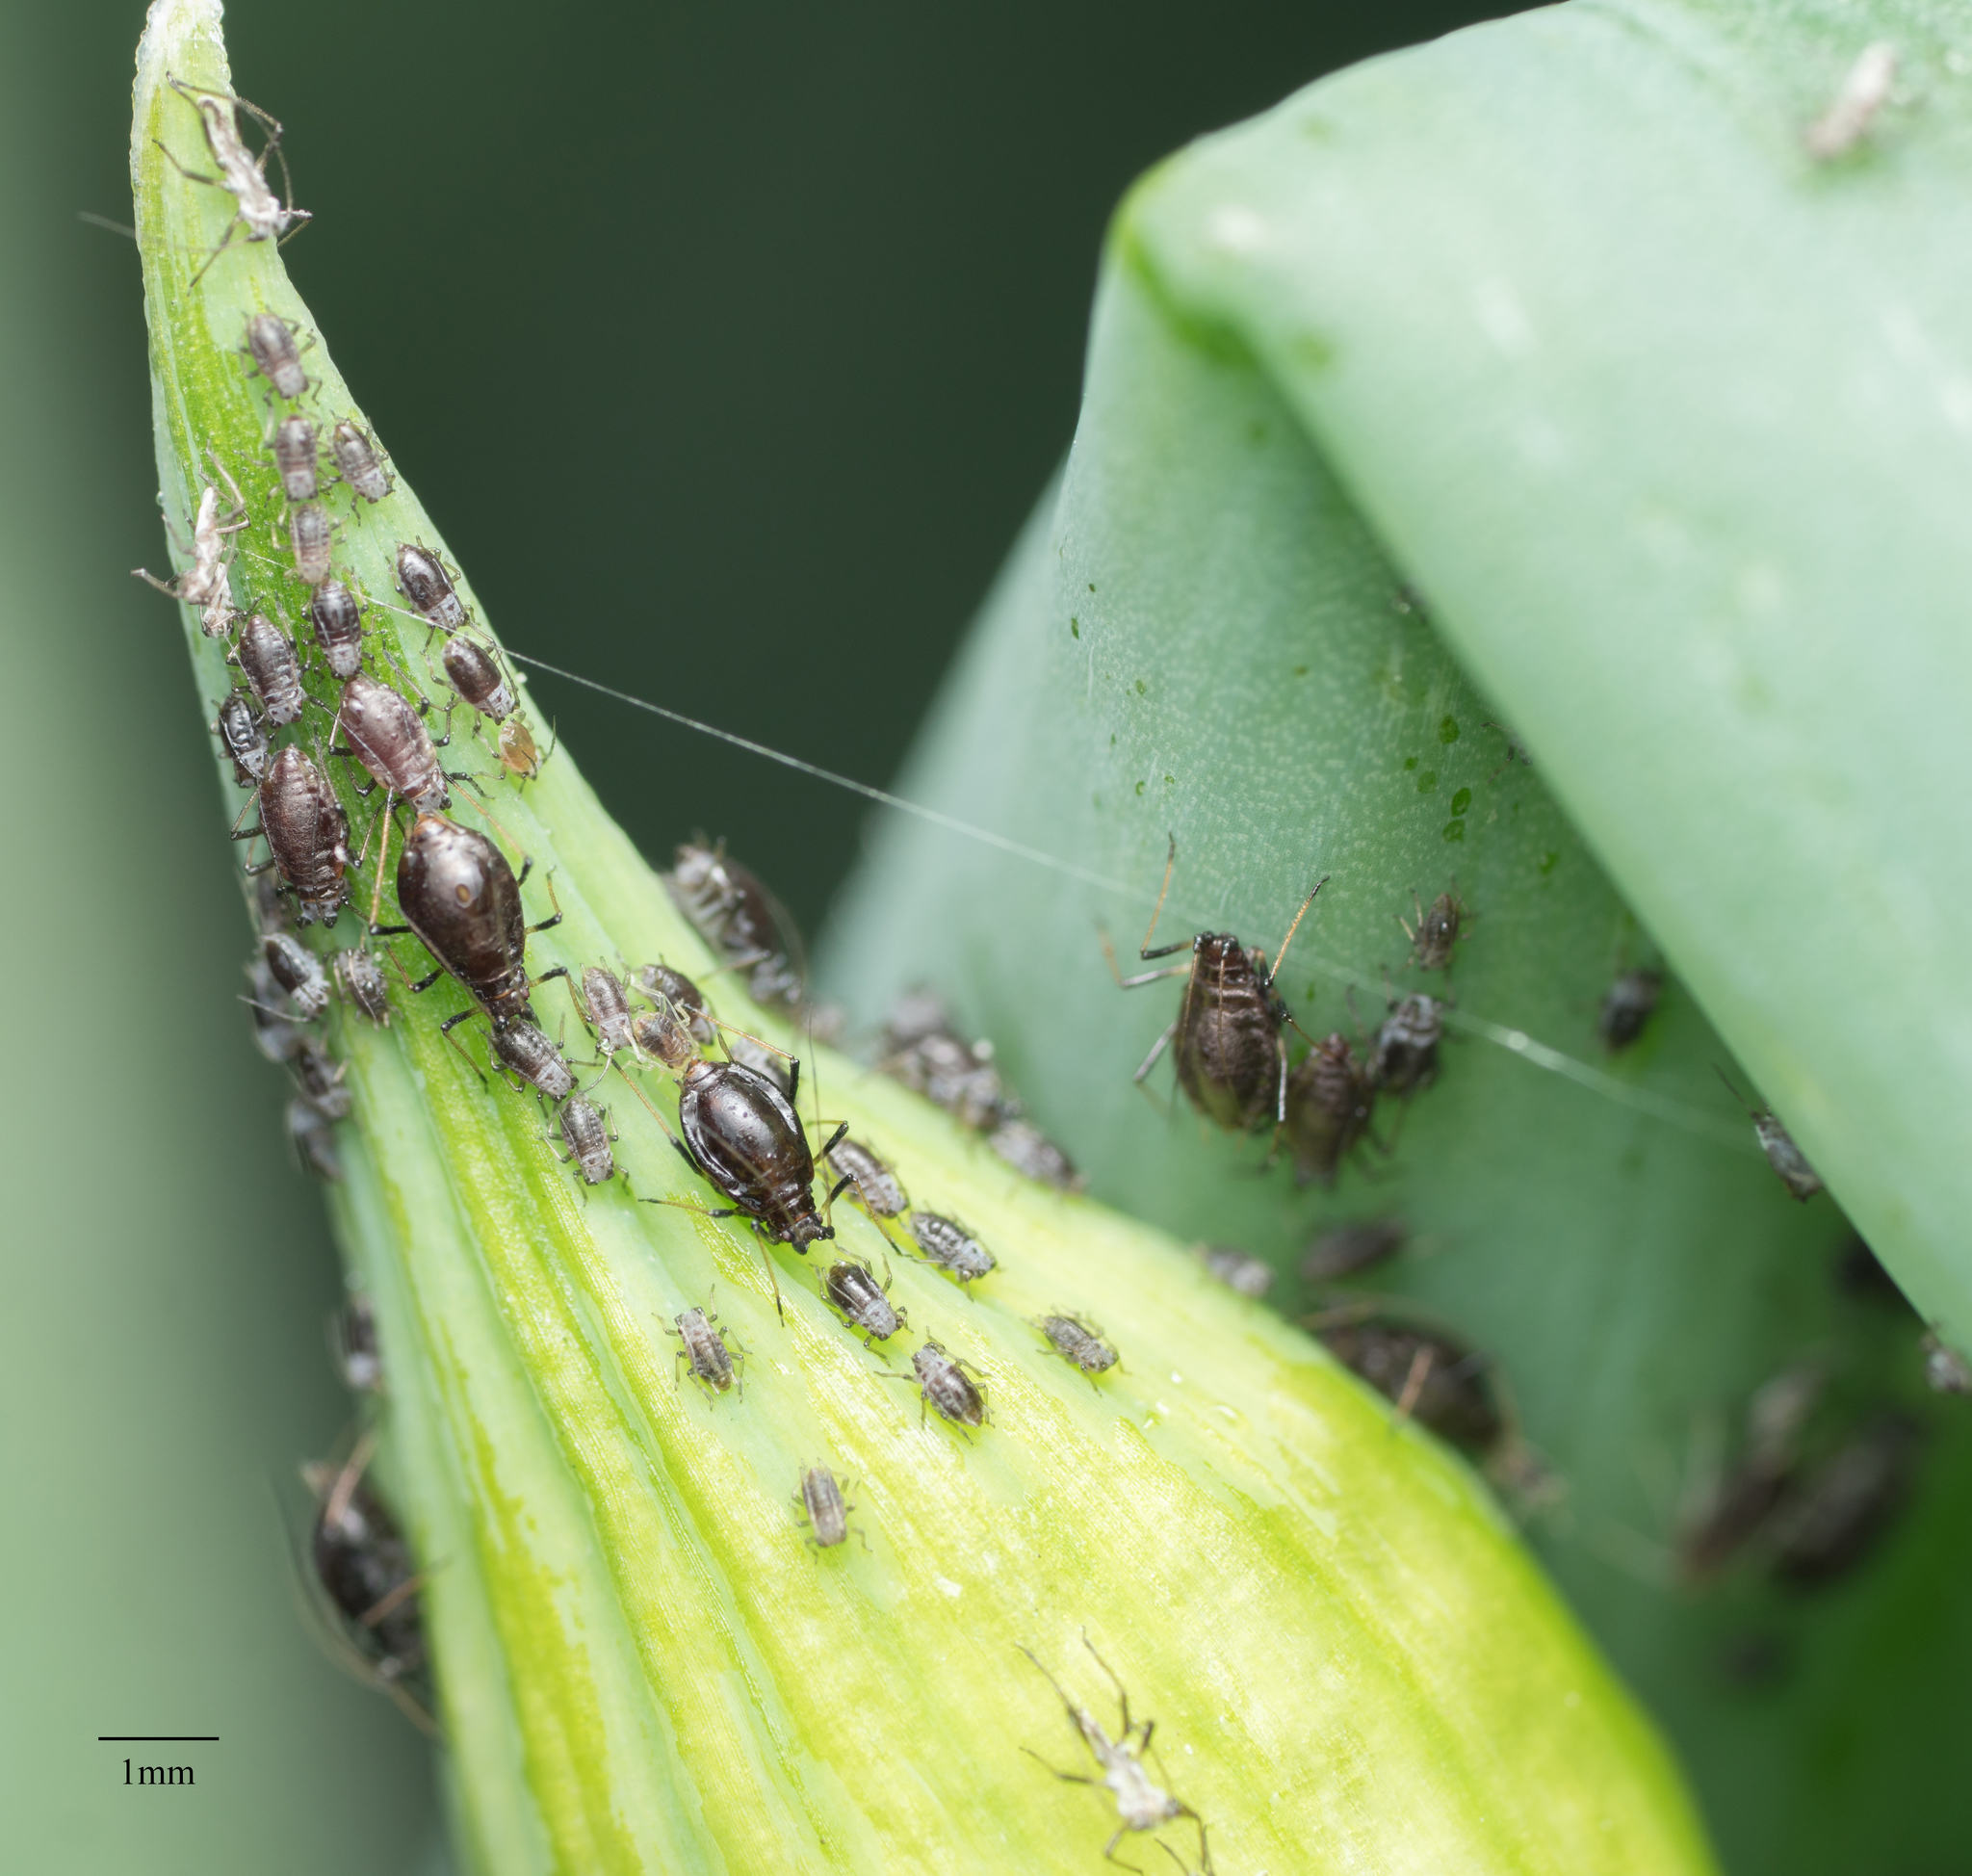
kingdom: Animalia
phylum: Arthropoda
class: Insecta
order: Hemiptera
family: Aphididae
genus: Neotoxoptera
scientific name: Neotoxoptera formosana
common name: Onion aphid
